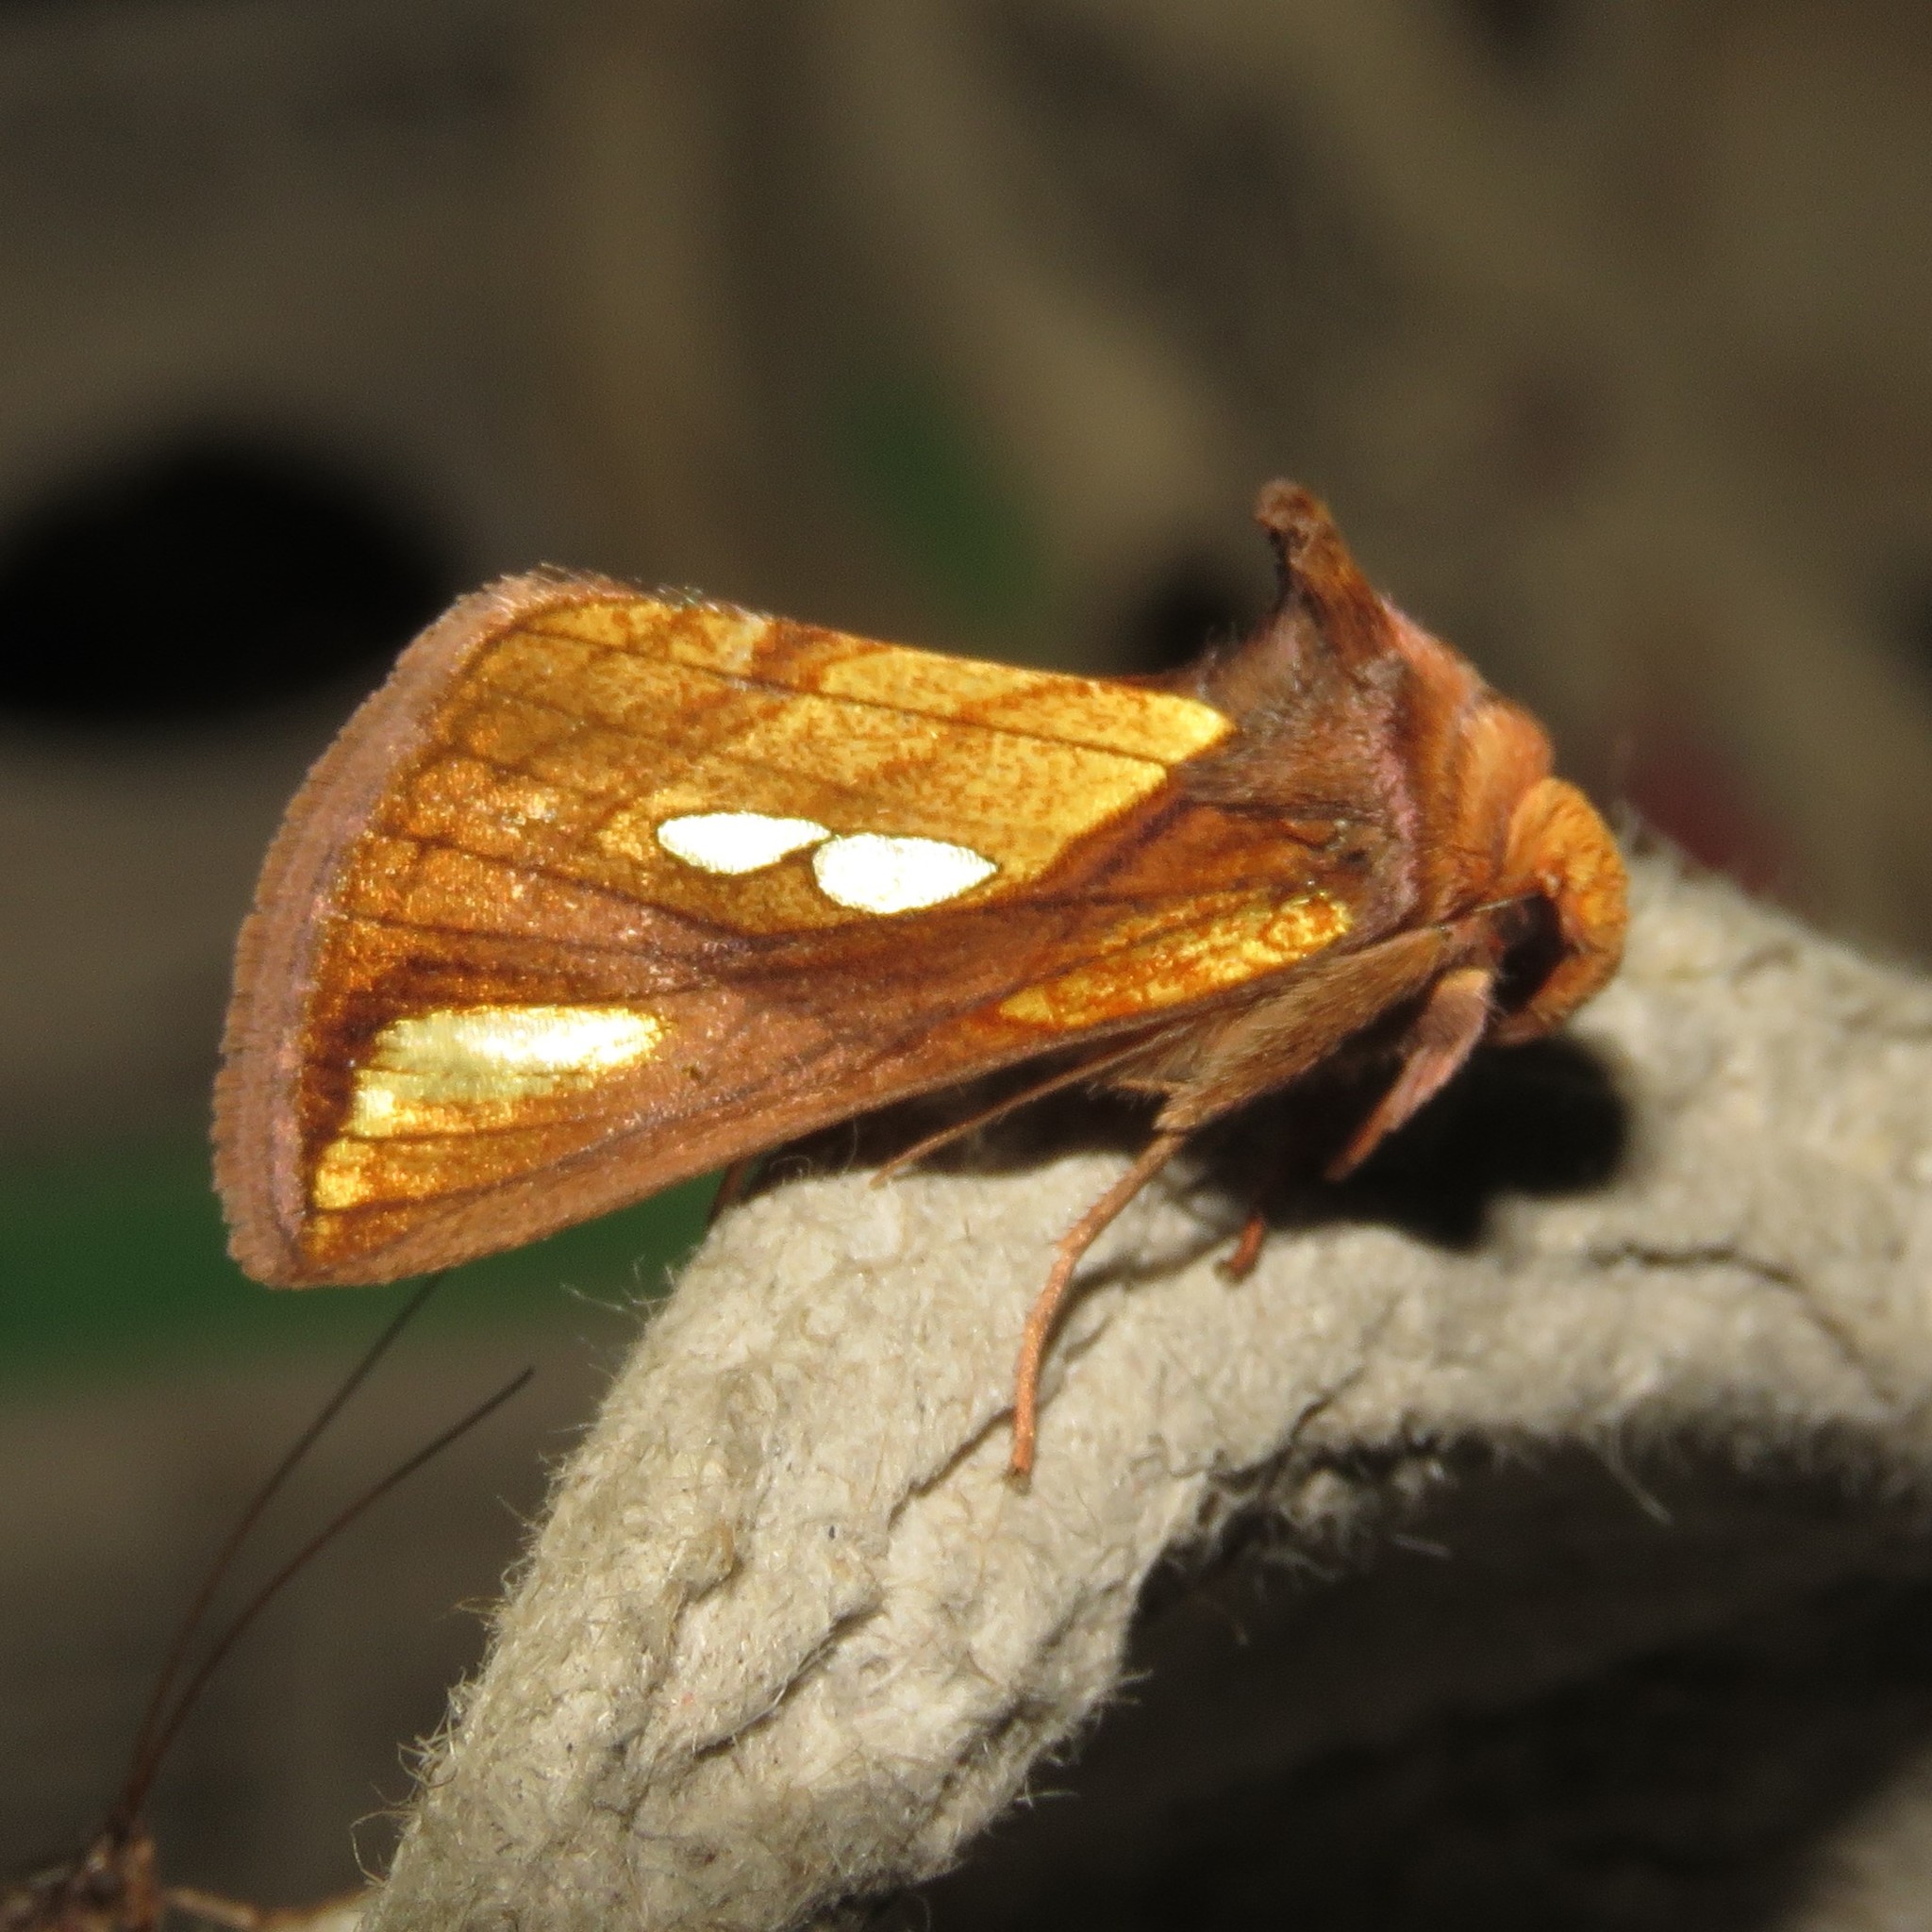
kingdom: Animalia
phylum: Arthropoda
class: Insecta
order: Lepidoptera
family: Noctuidae
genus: Plusia
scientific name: Plusia contexta
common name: Connected looper moth
